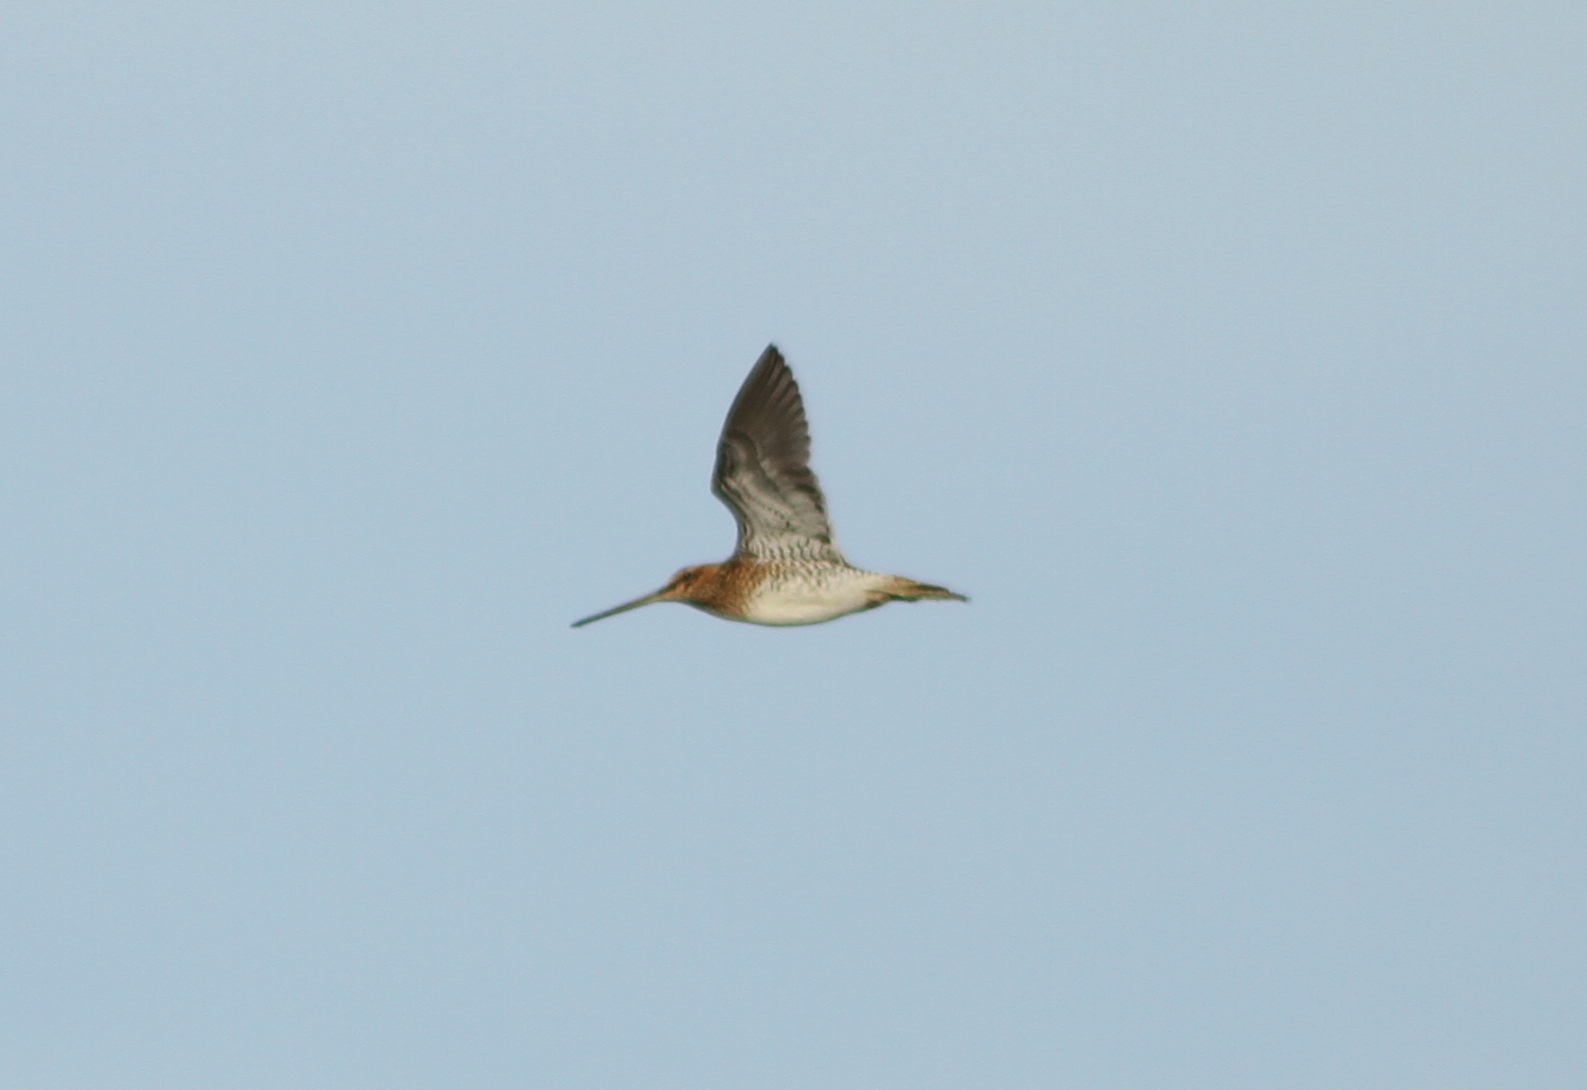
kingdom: Animalia
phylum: Chordata
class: Aves
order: Charadriiformes
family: Scolopacidae
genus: Gallinago
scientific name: Gallinago gallinago
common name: Common snipe
